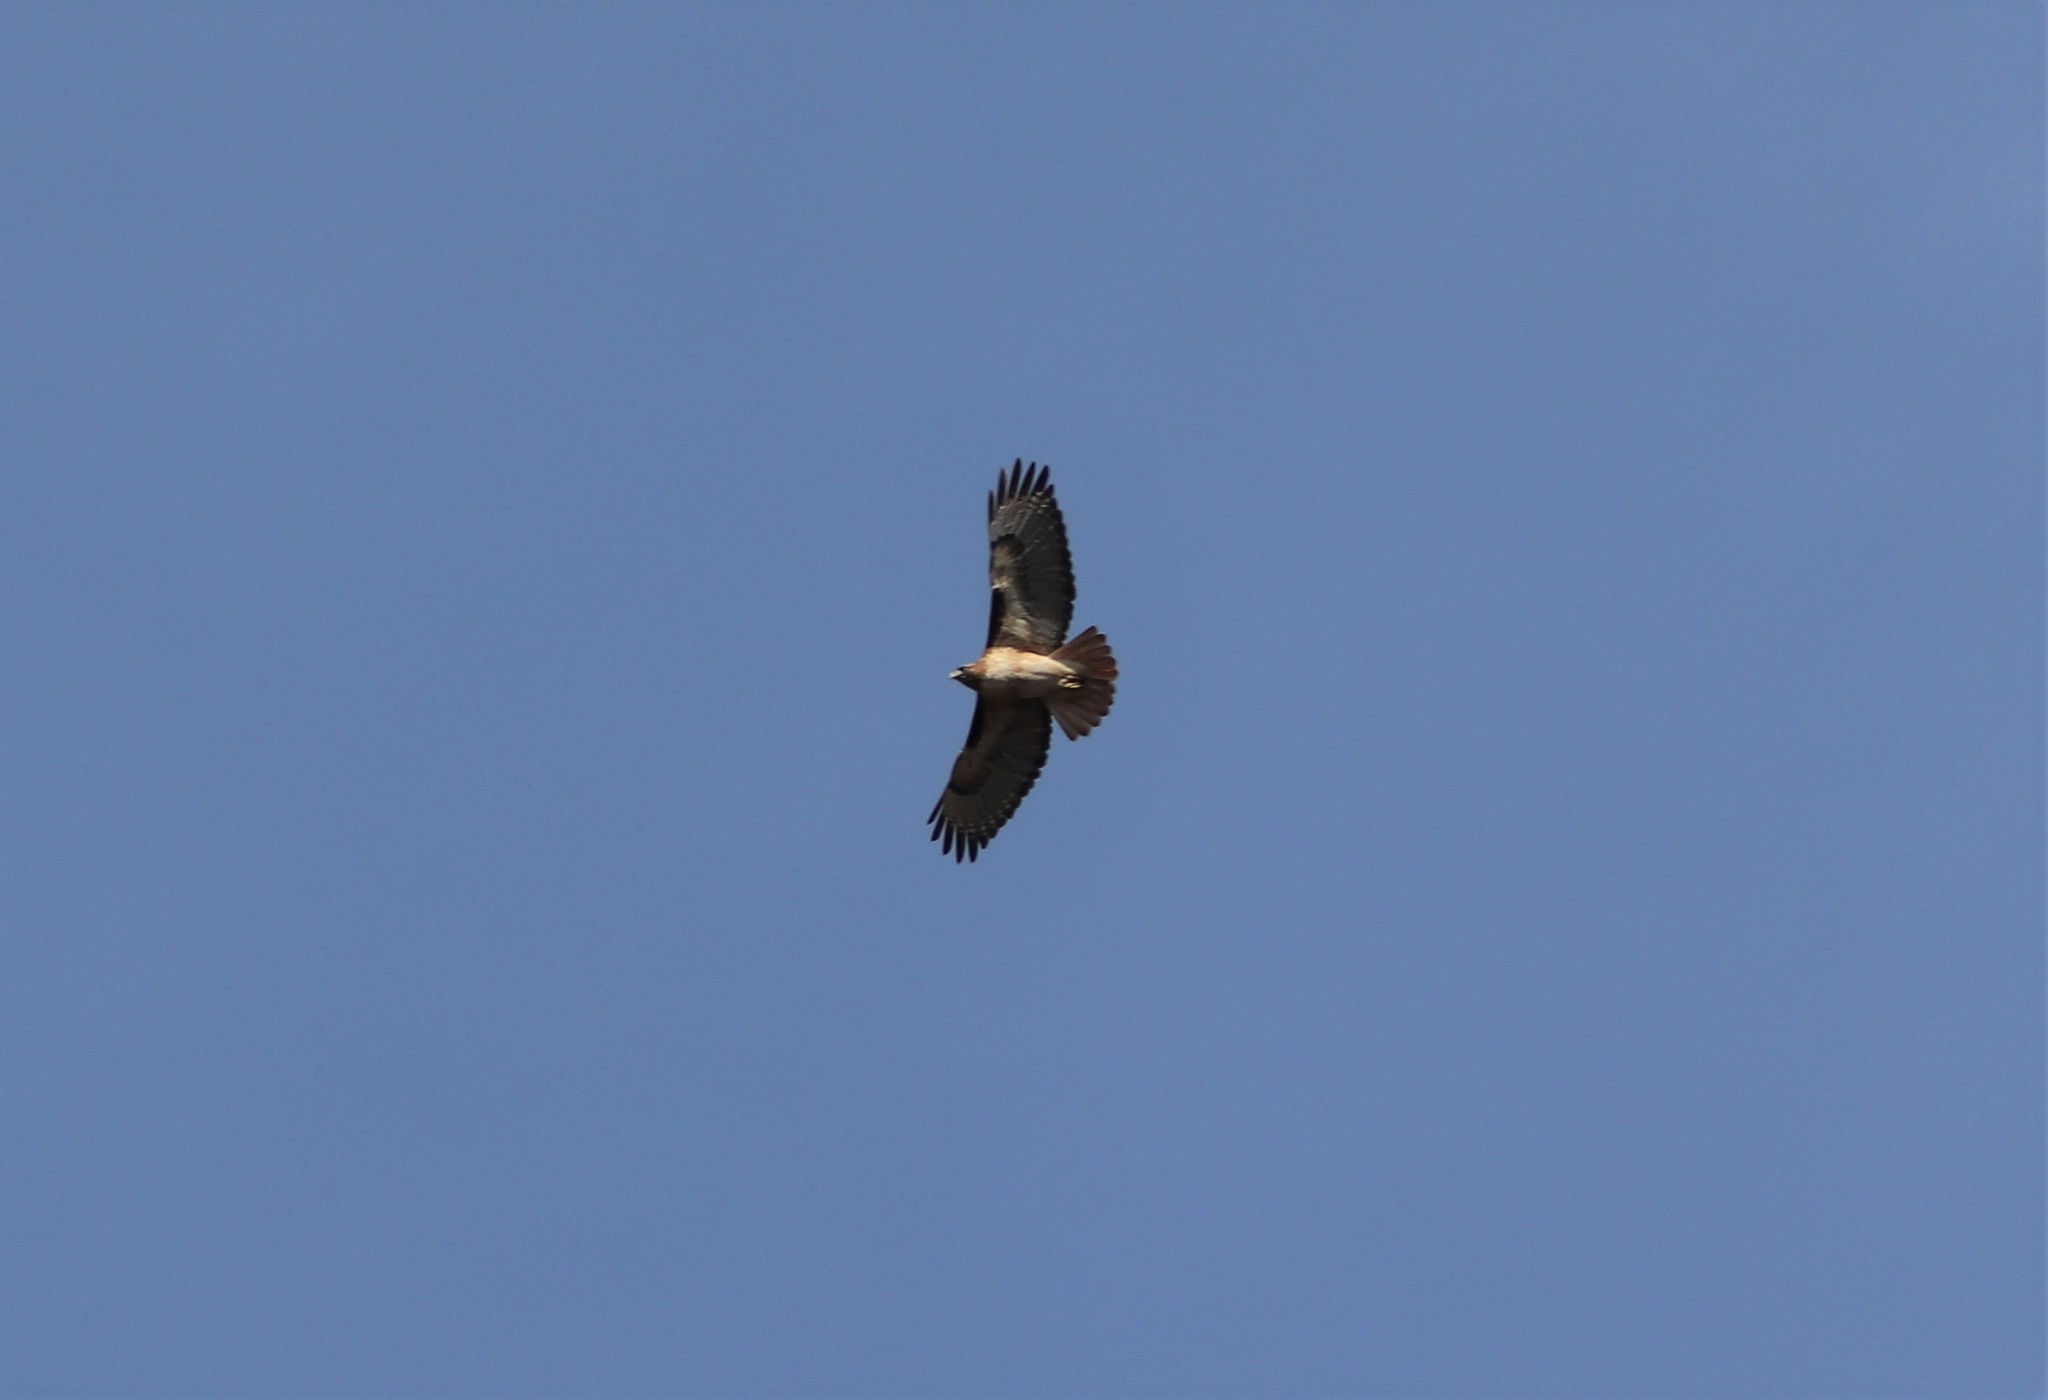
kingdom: Animalia
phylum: Chordata
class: Aves
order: Accipitriformes
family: Accipitridae
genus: Buteo
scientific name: Buteo jamaicensis
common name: Red-tailed hawk
